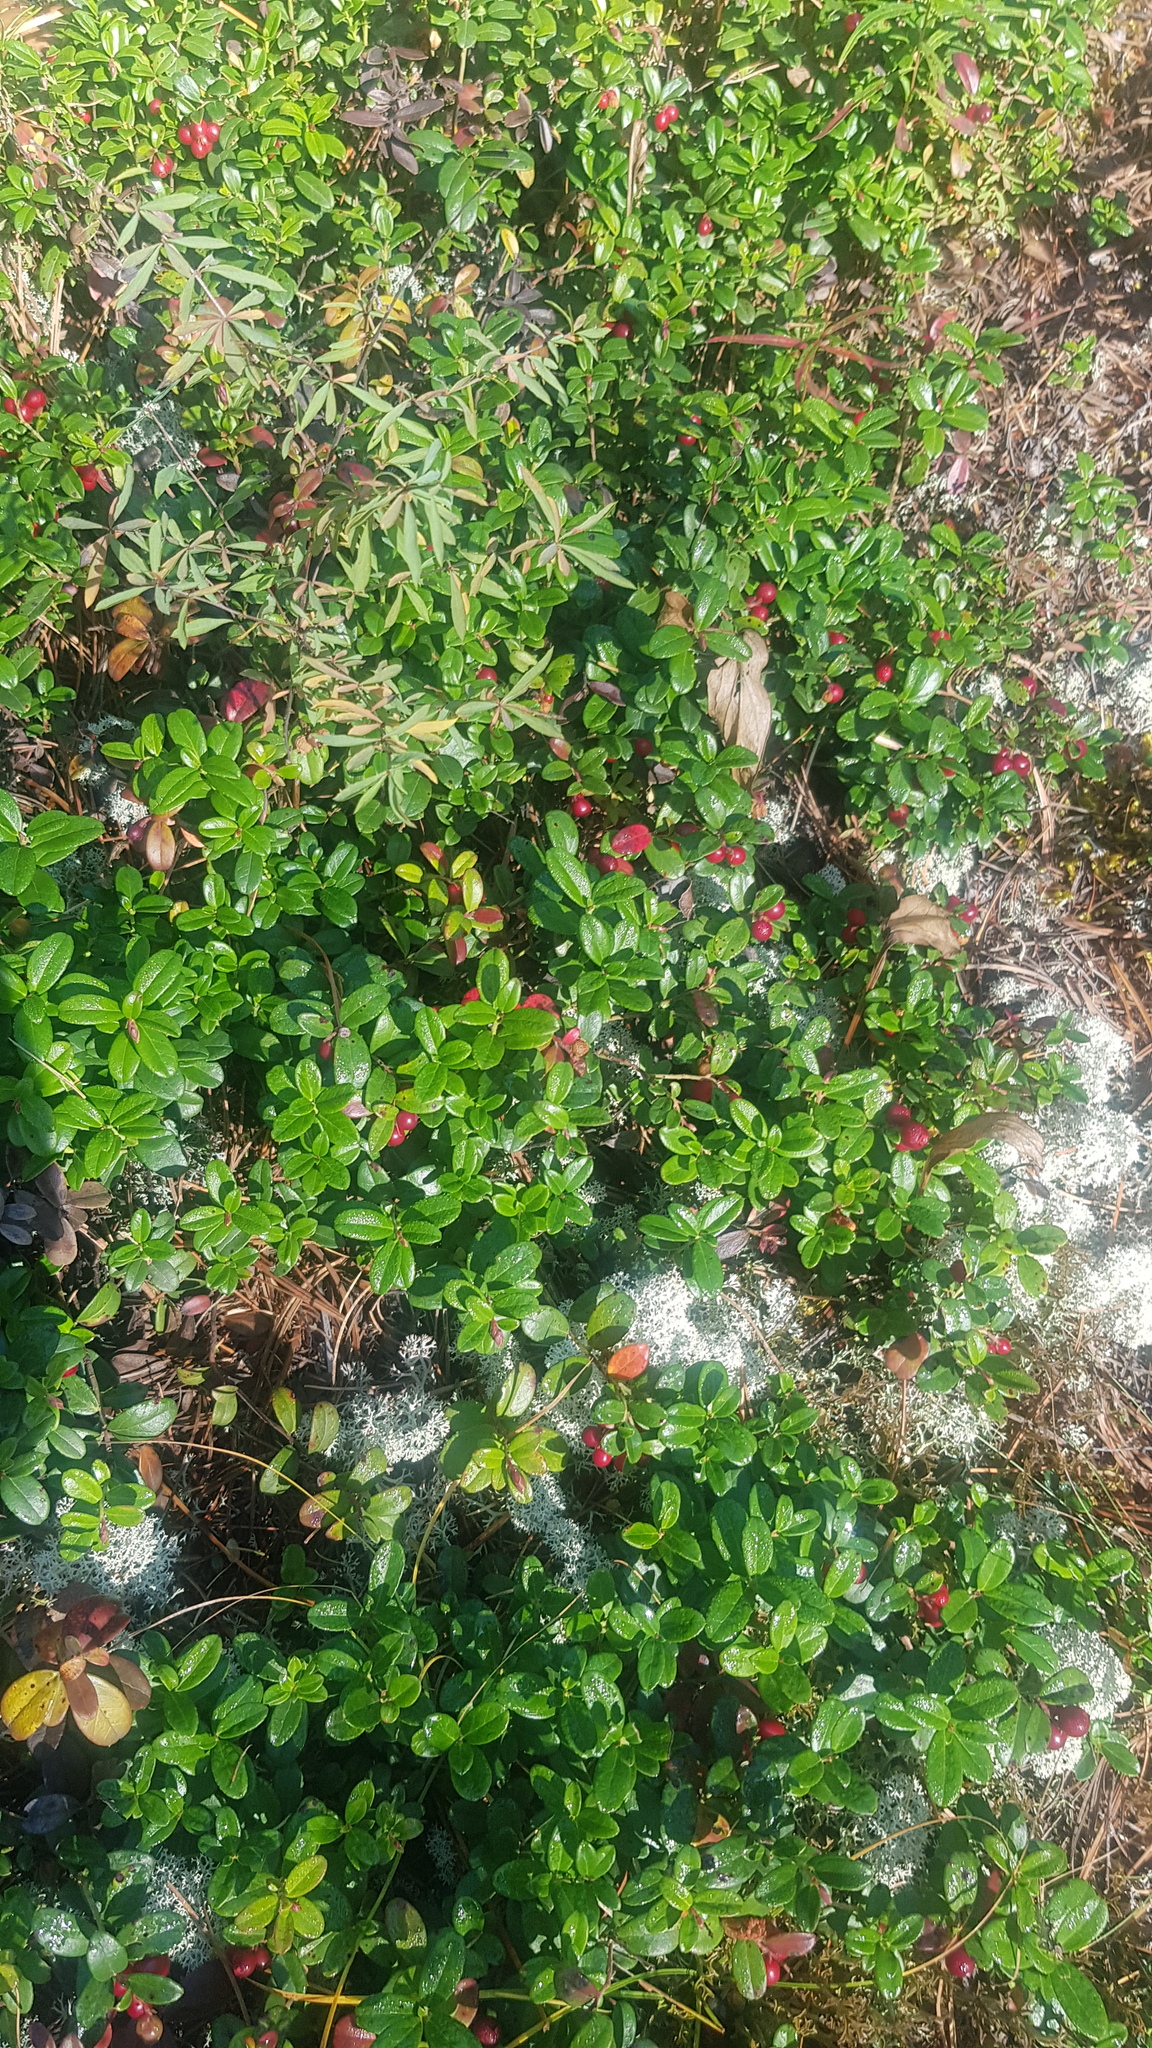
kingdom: Plantae
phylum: Tracheophyta
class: Magnoliopsida
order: Ericales
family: Ericaceae
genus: Vaccinium
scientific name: Vaccinium vitis-idaea
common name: Cowberry
